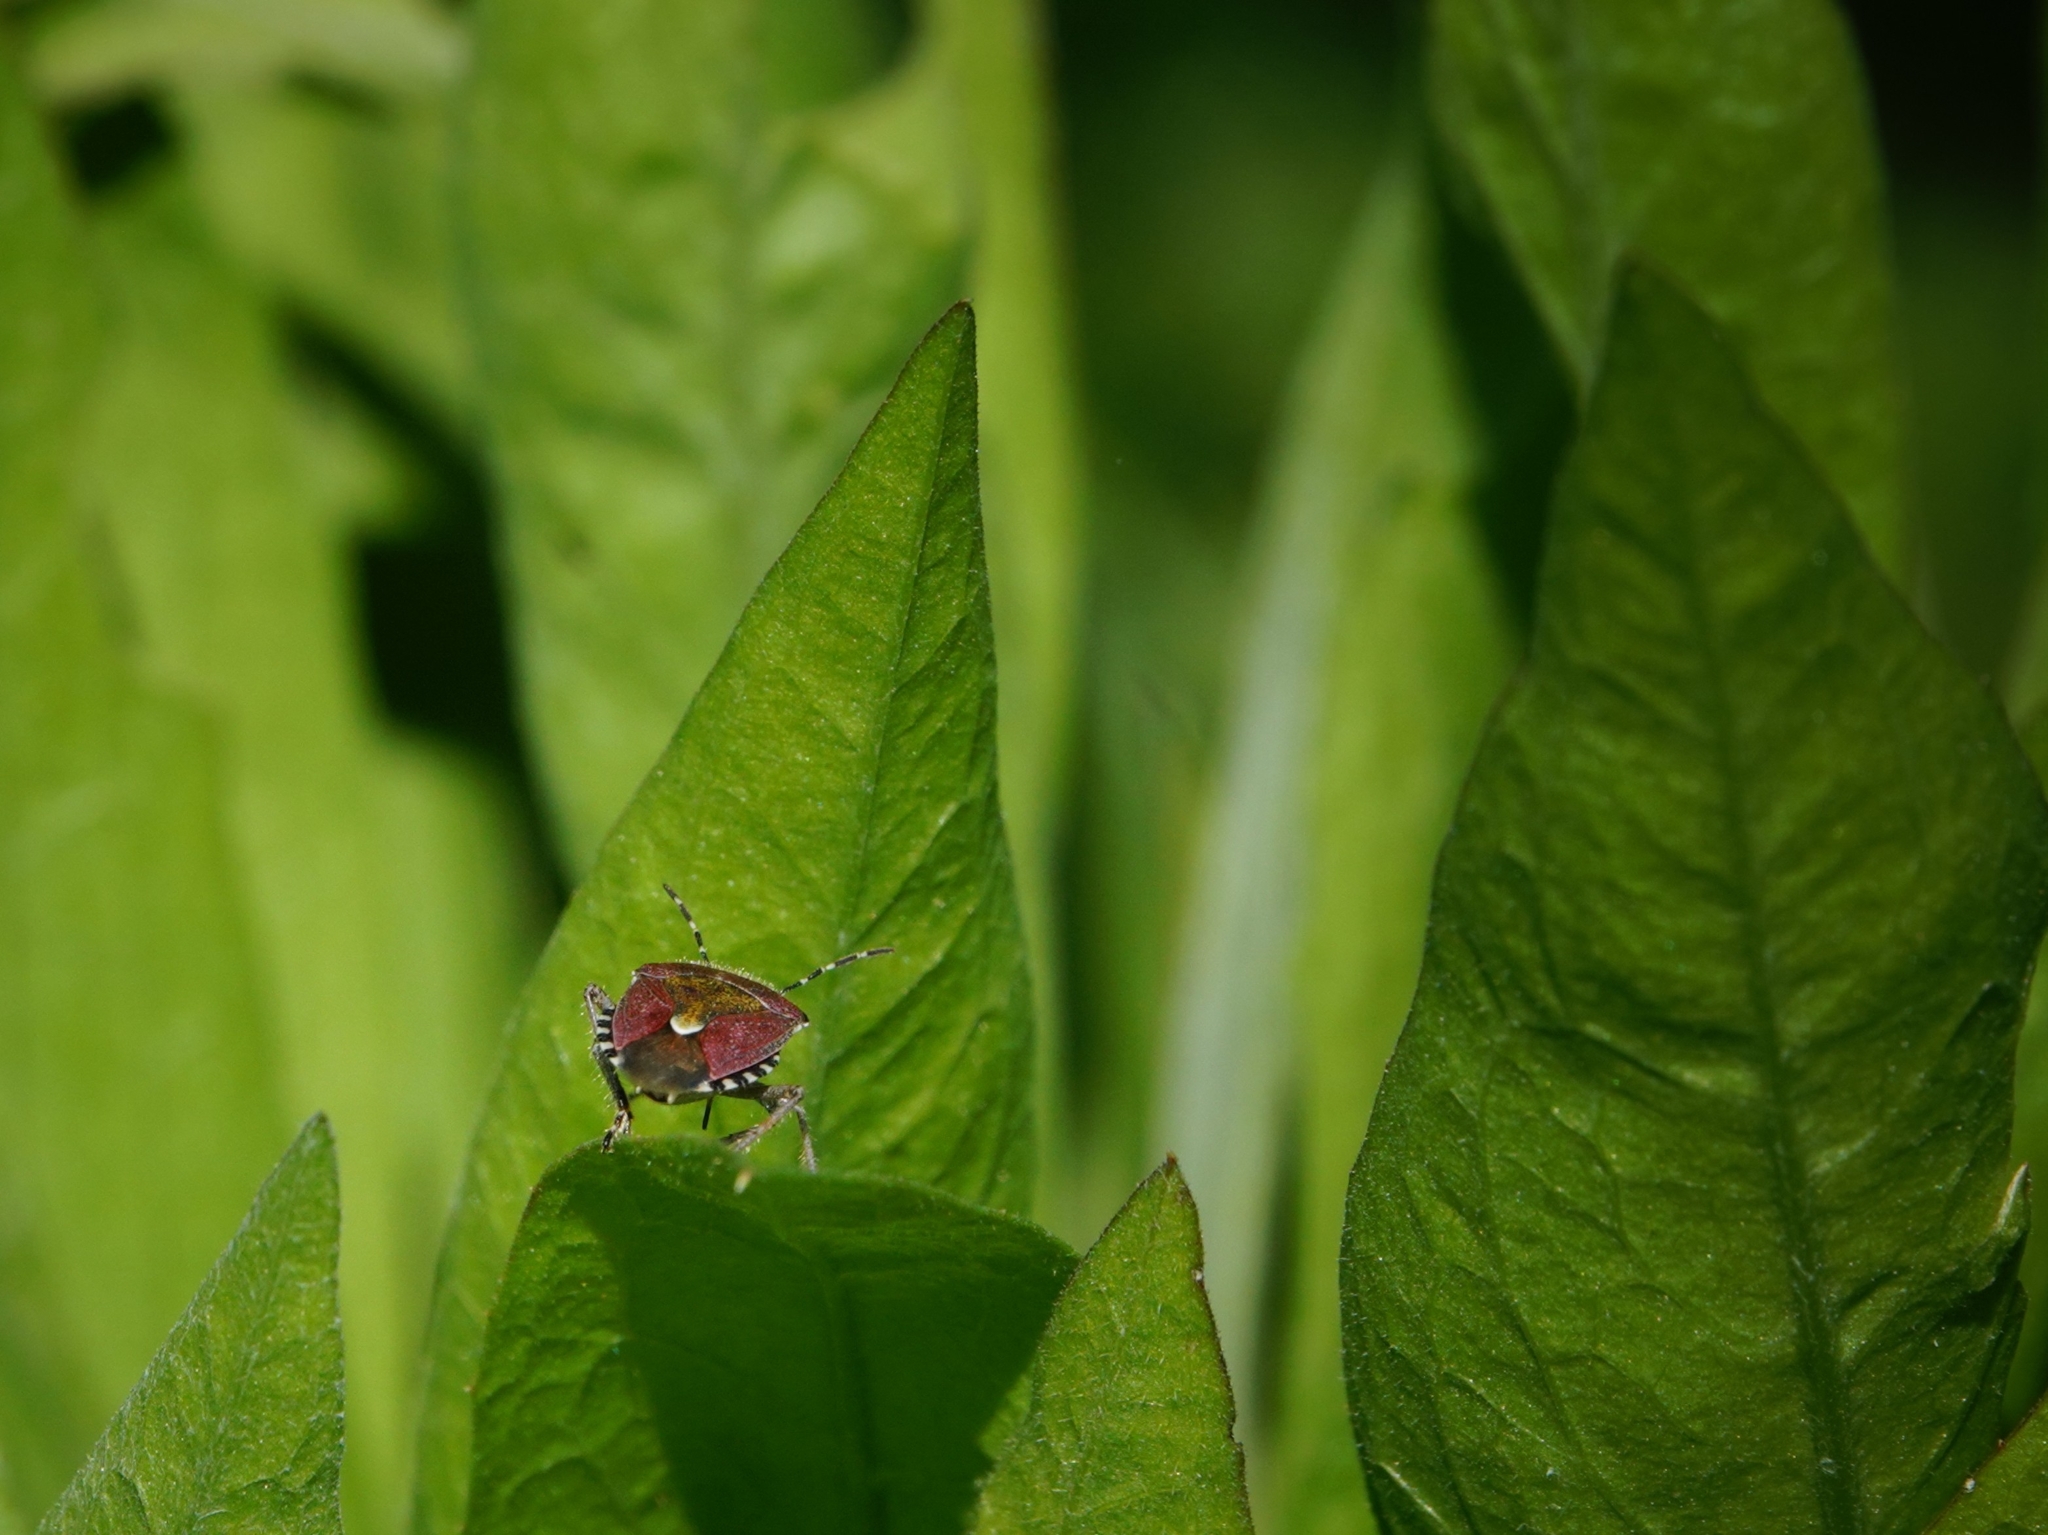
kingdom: Animalia
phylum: Arthropoda
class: Insecta
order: Hemiptera
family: Pentatomidae
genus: Dolycoris
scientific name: Dolycoris baccarum
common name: Sloe bug
